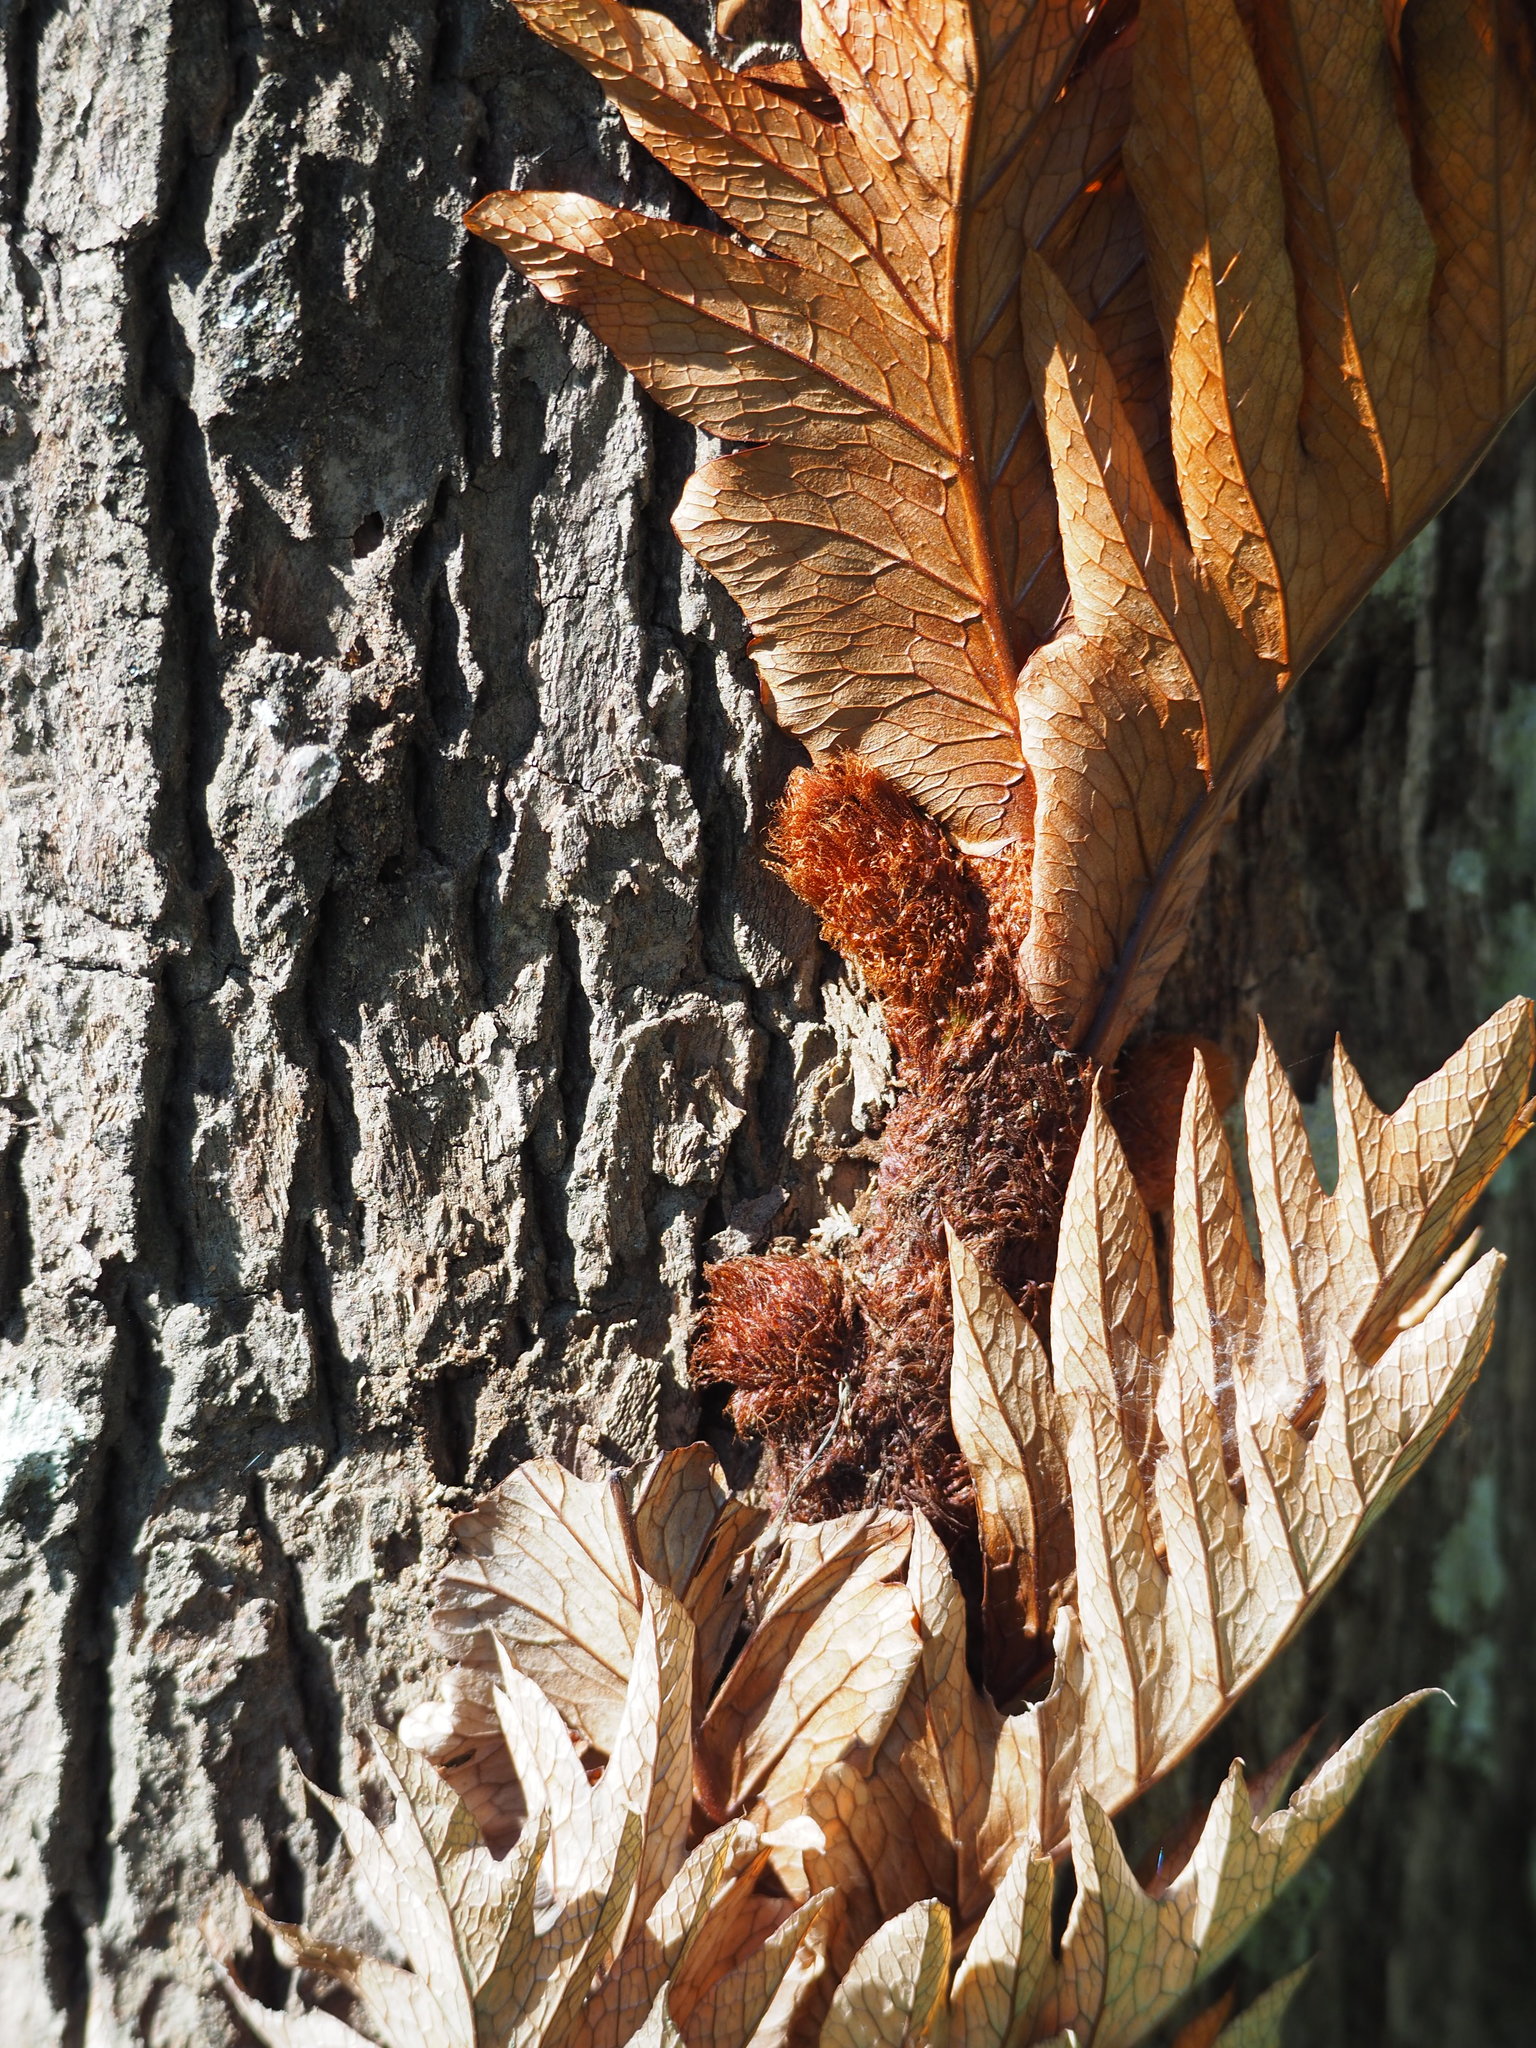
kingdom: Plantae
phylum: Tracheophyta
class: Polypodiopsida
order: Polypodiales
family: Polypodiaceae
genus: Drynaria
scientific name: Drynaria roosii
